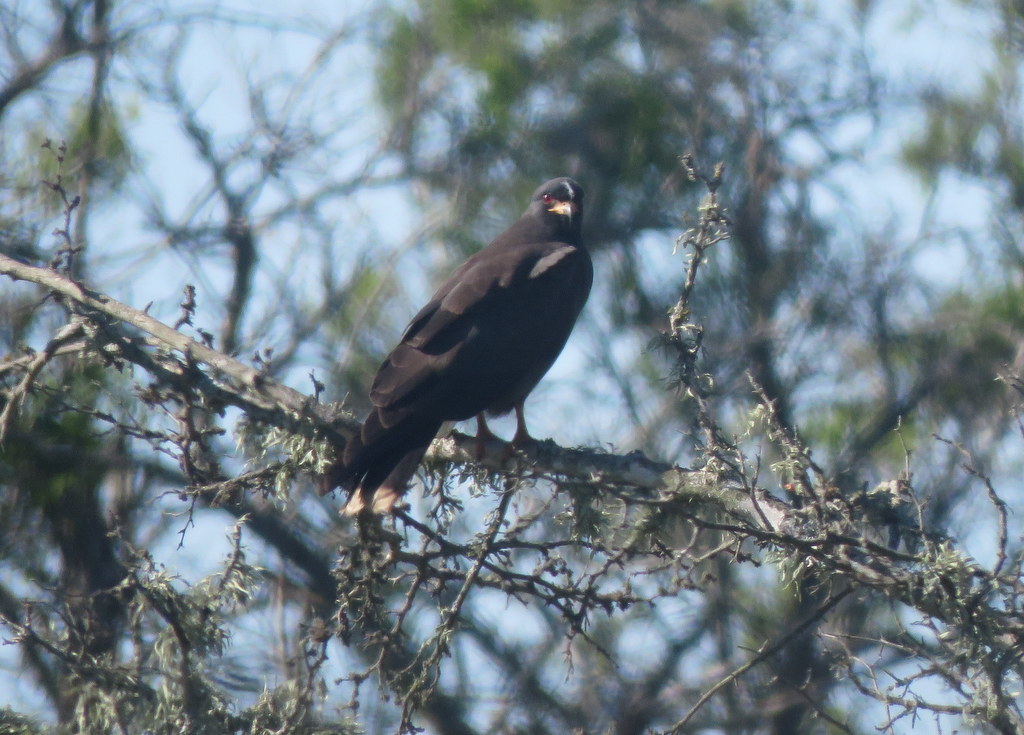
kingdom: Animalia
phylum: Chordata
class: Aves
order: Accipitriformes
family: Accipitridae
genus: Rostrhamus
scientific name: Rostrhamus sociabilis
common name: Snail kite
